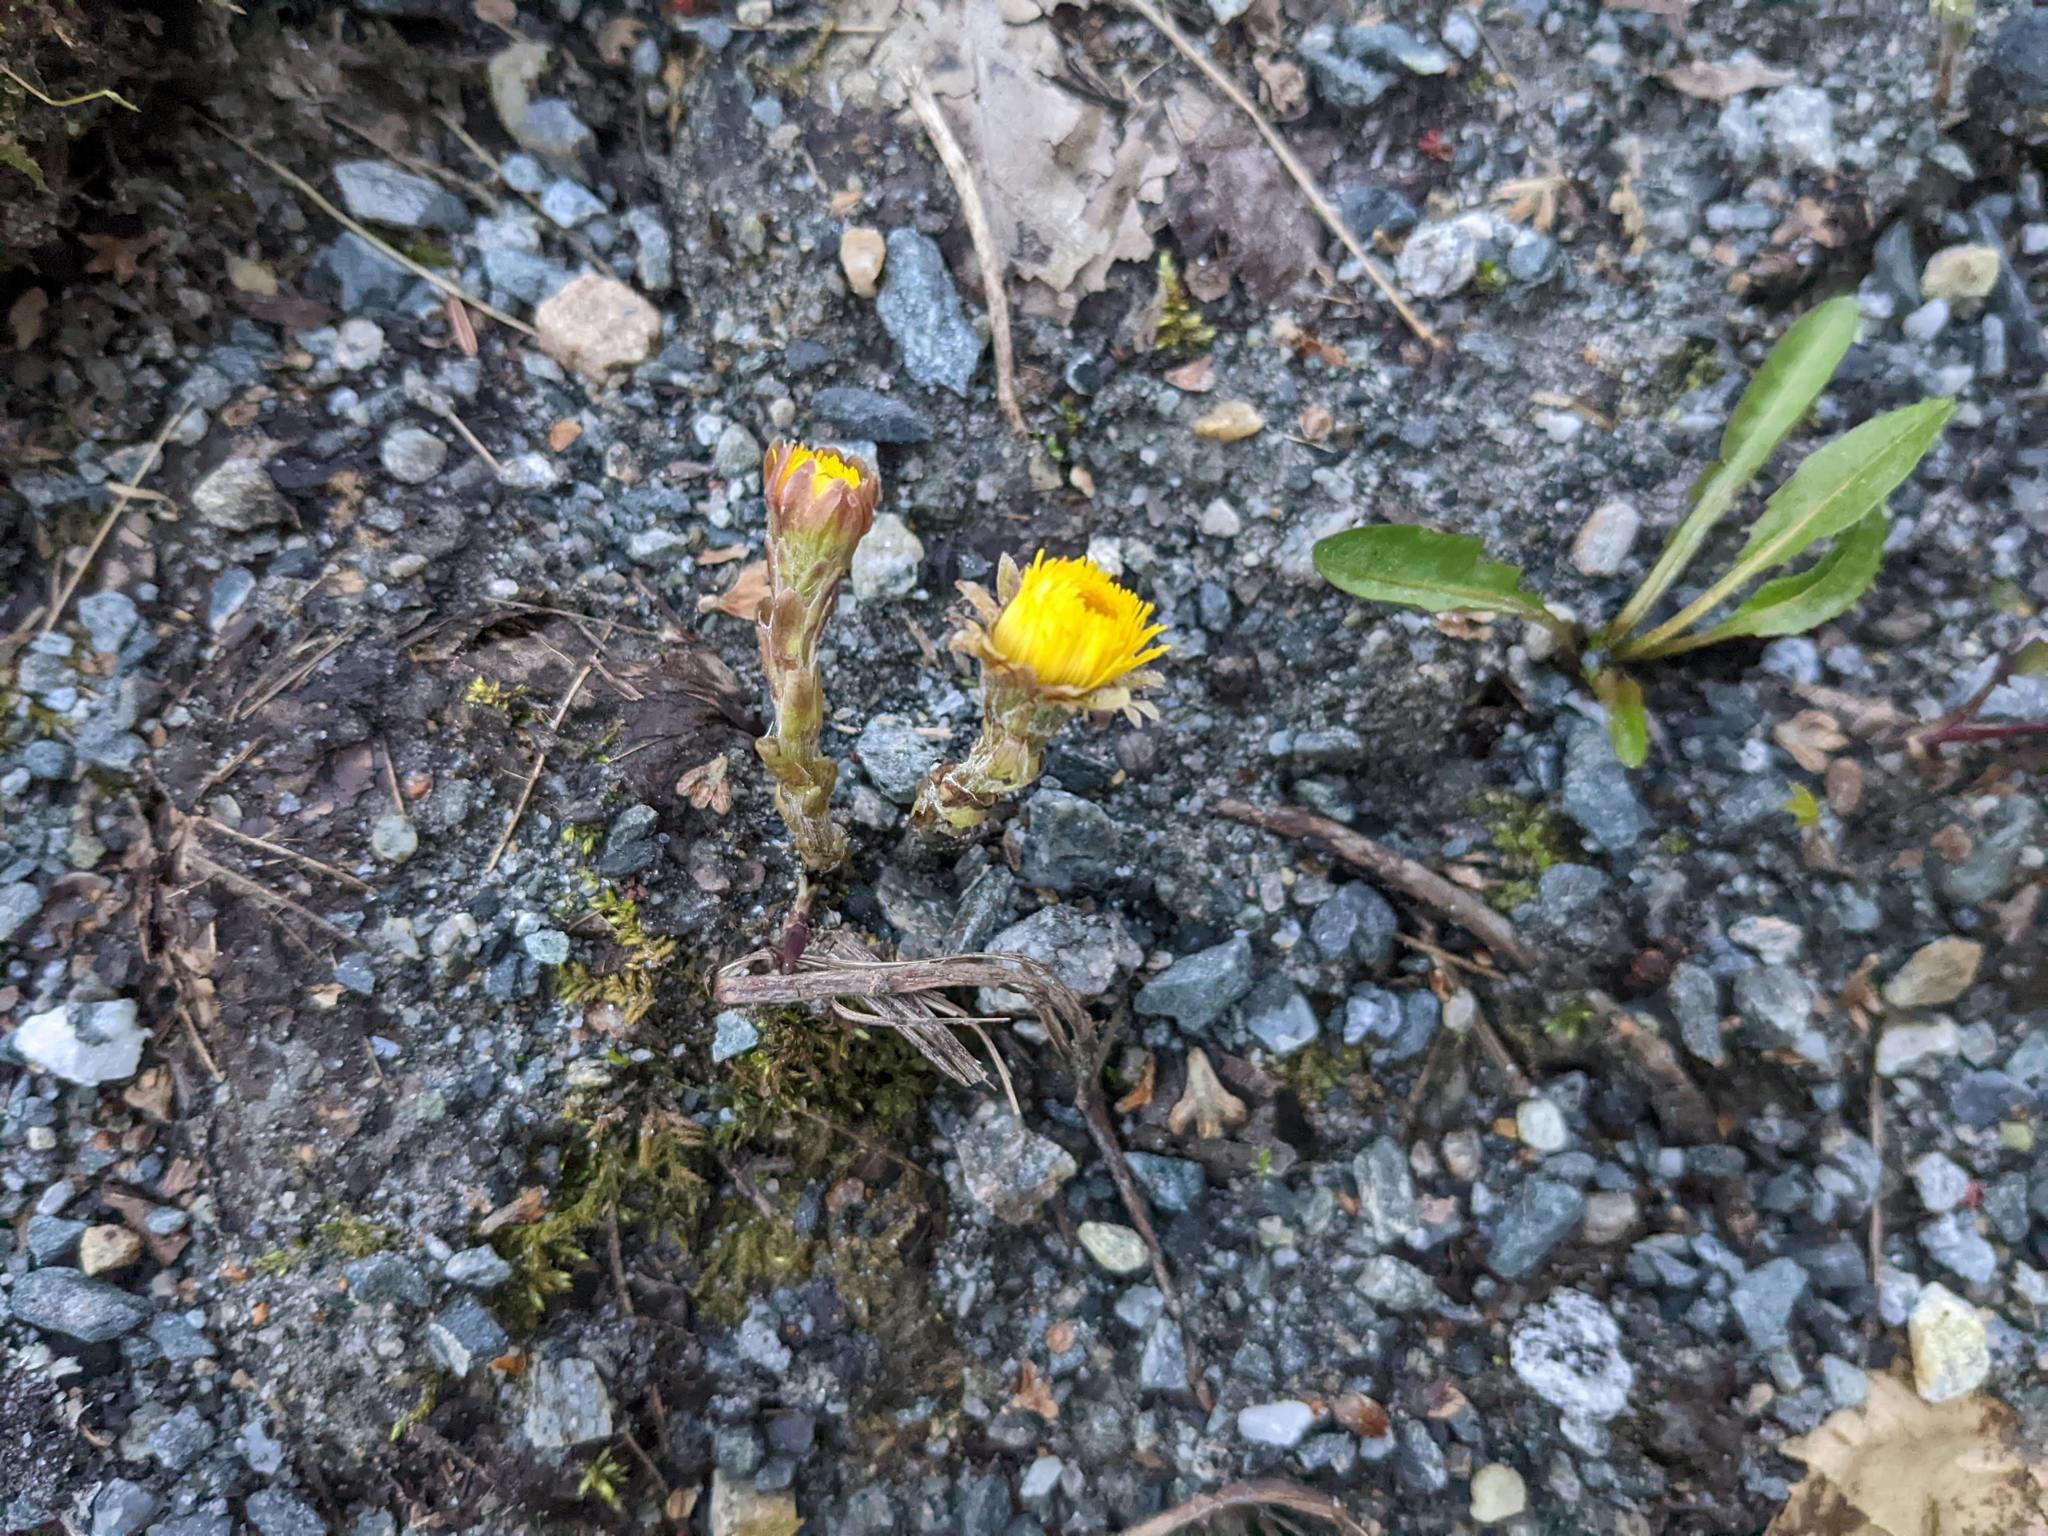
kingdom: Plantae
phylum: Tracheophyta
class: Magnoliopsida
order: Asterales
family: Asteraceae
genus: Tussilago
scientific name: Tussilago farfara
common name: Coltsfoot
